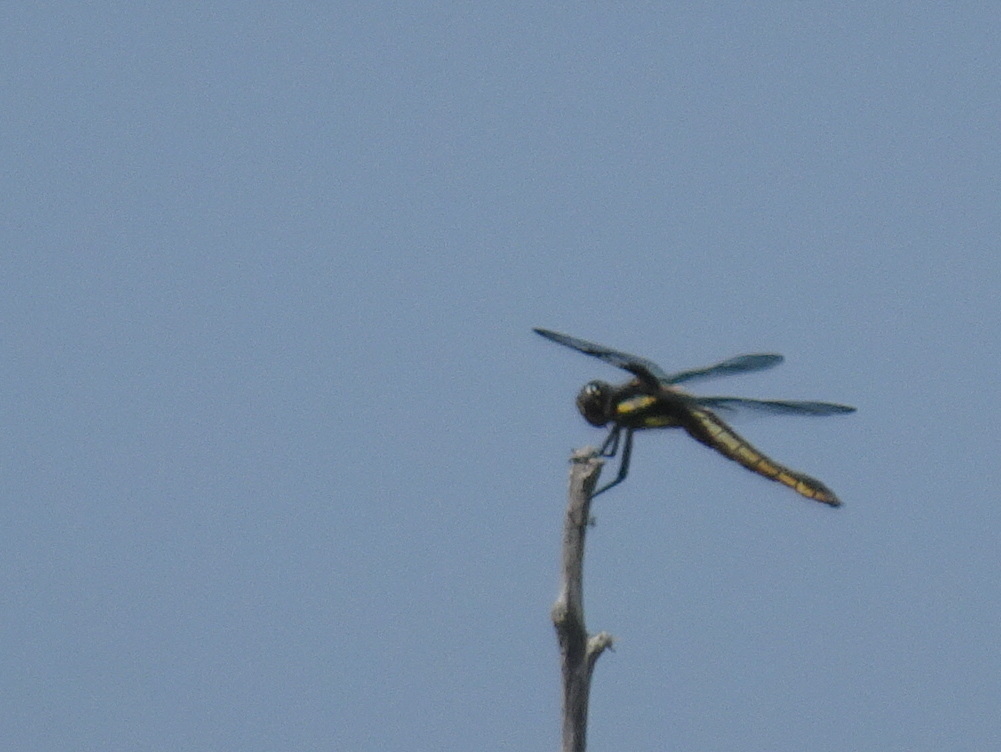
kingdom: Animalia
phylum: Arthropoda
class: Insecta
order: Odonata
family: Libellulidae
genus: Libellula
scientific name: Libellula pulchella
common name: Twelve-spotted skimmer
